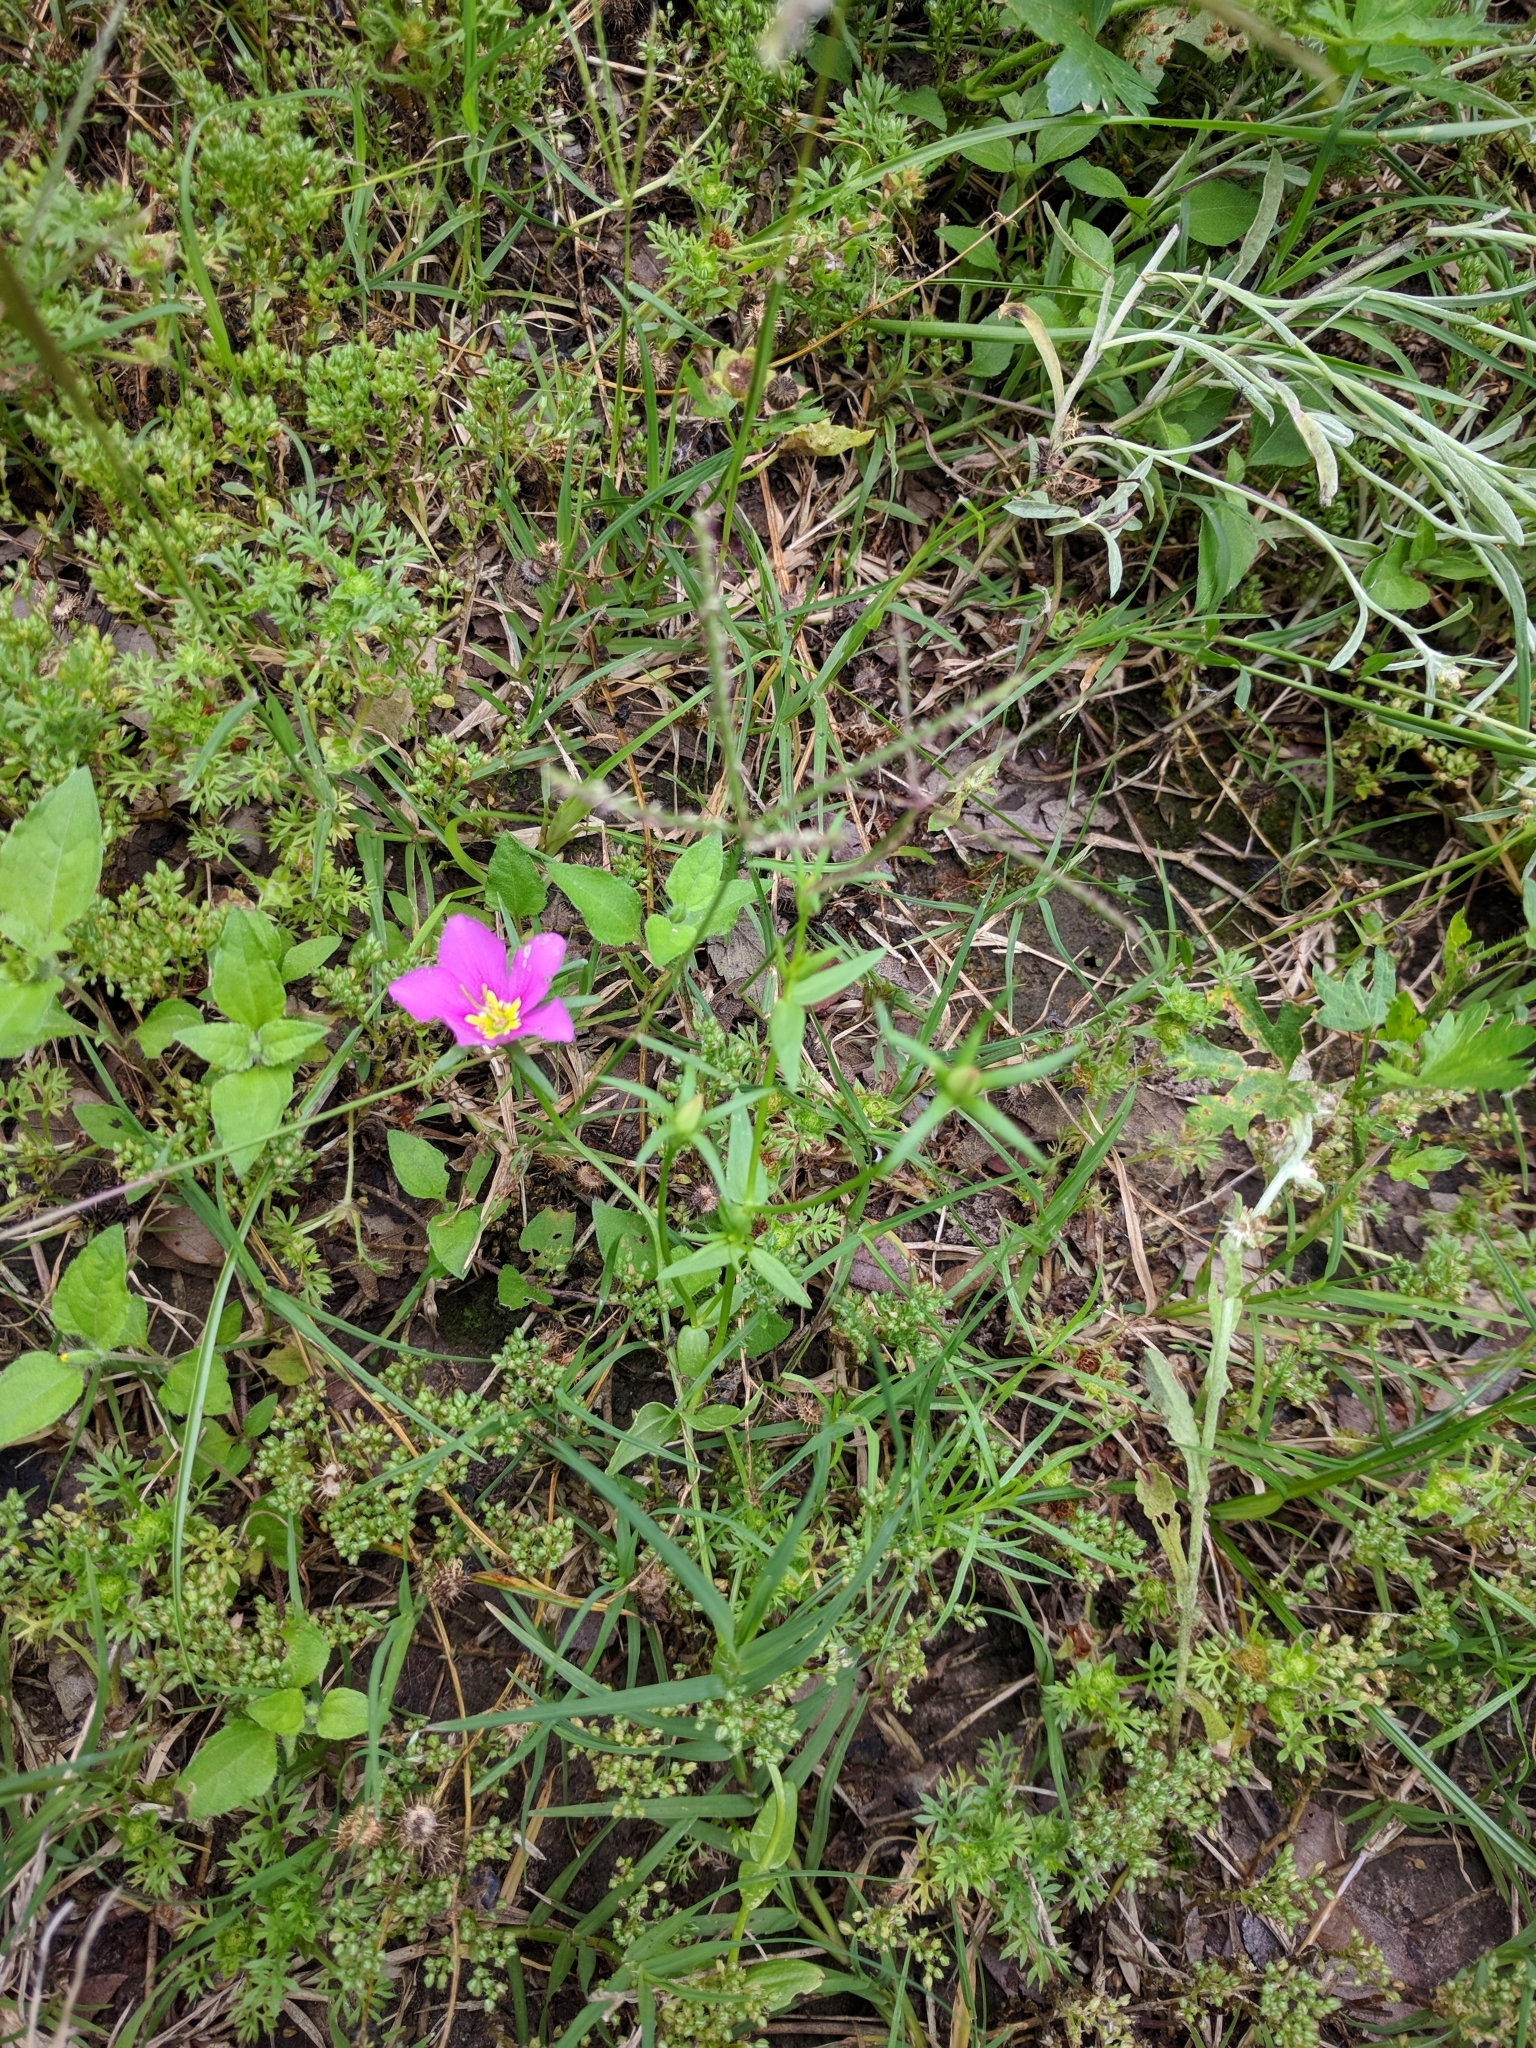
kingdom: Plantae
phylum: Tracheophyta
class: Magnoliopsida
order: Gentianales
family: Gentianaceae
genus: Sabatia
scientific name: Sabatia campestris
